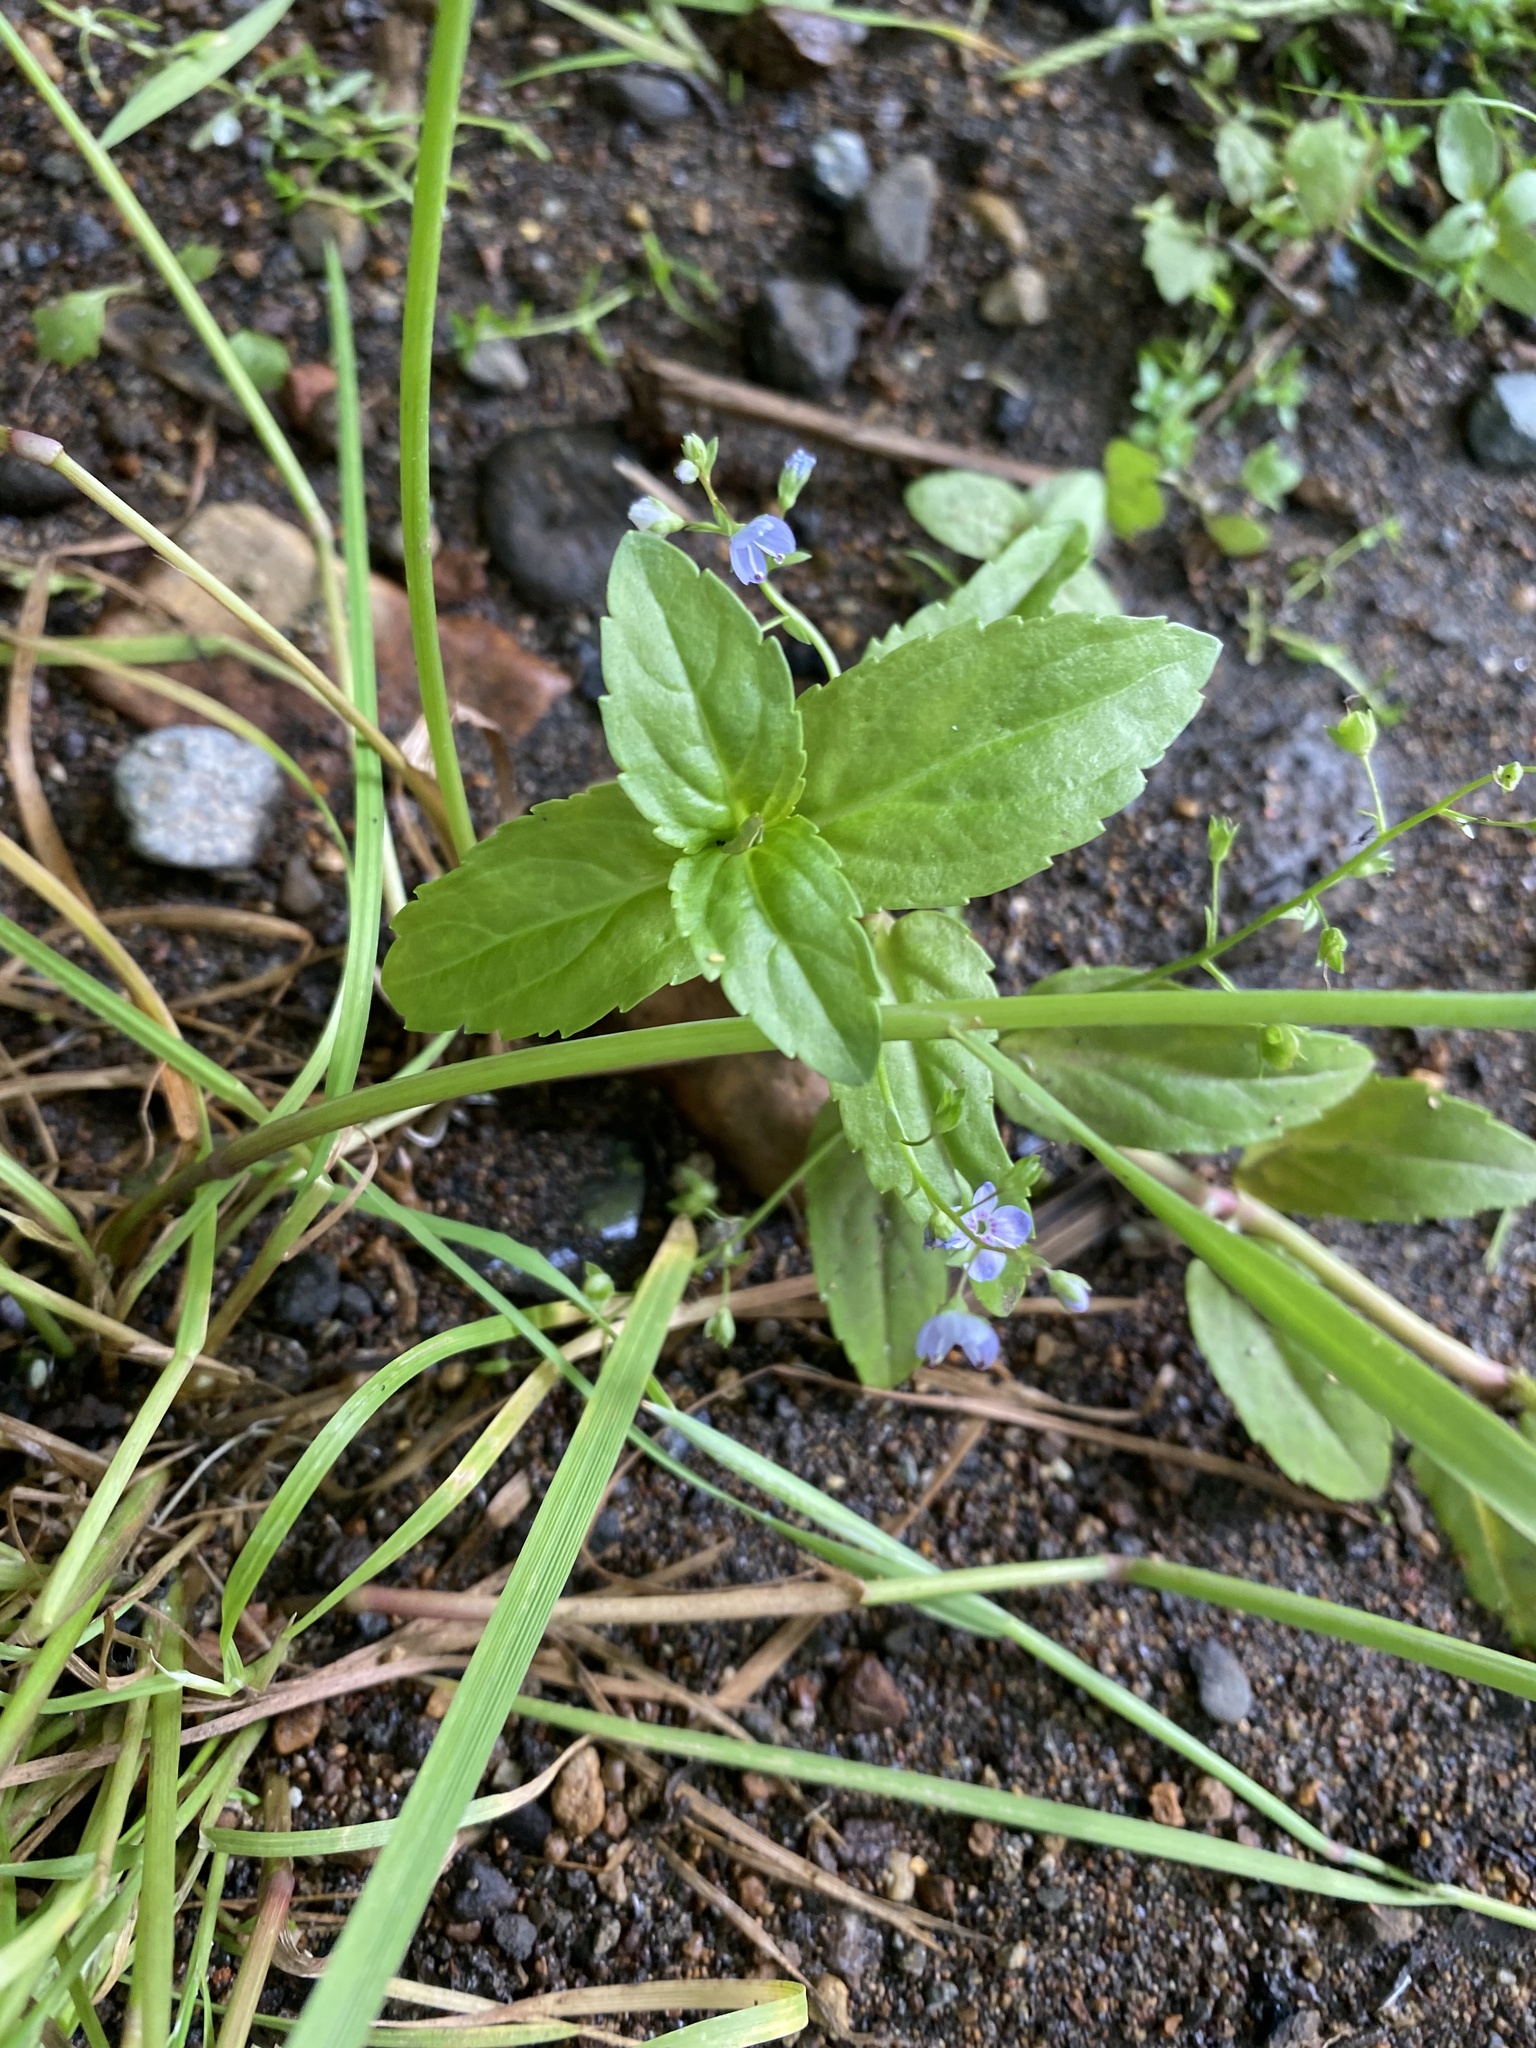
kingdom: Plantae
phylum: Tracheophyta
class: Magnoliopsida
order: Lamiales
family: Plantaginaceae
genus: Veronica
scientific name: Veronica americana
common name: American brooklime
